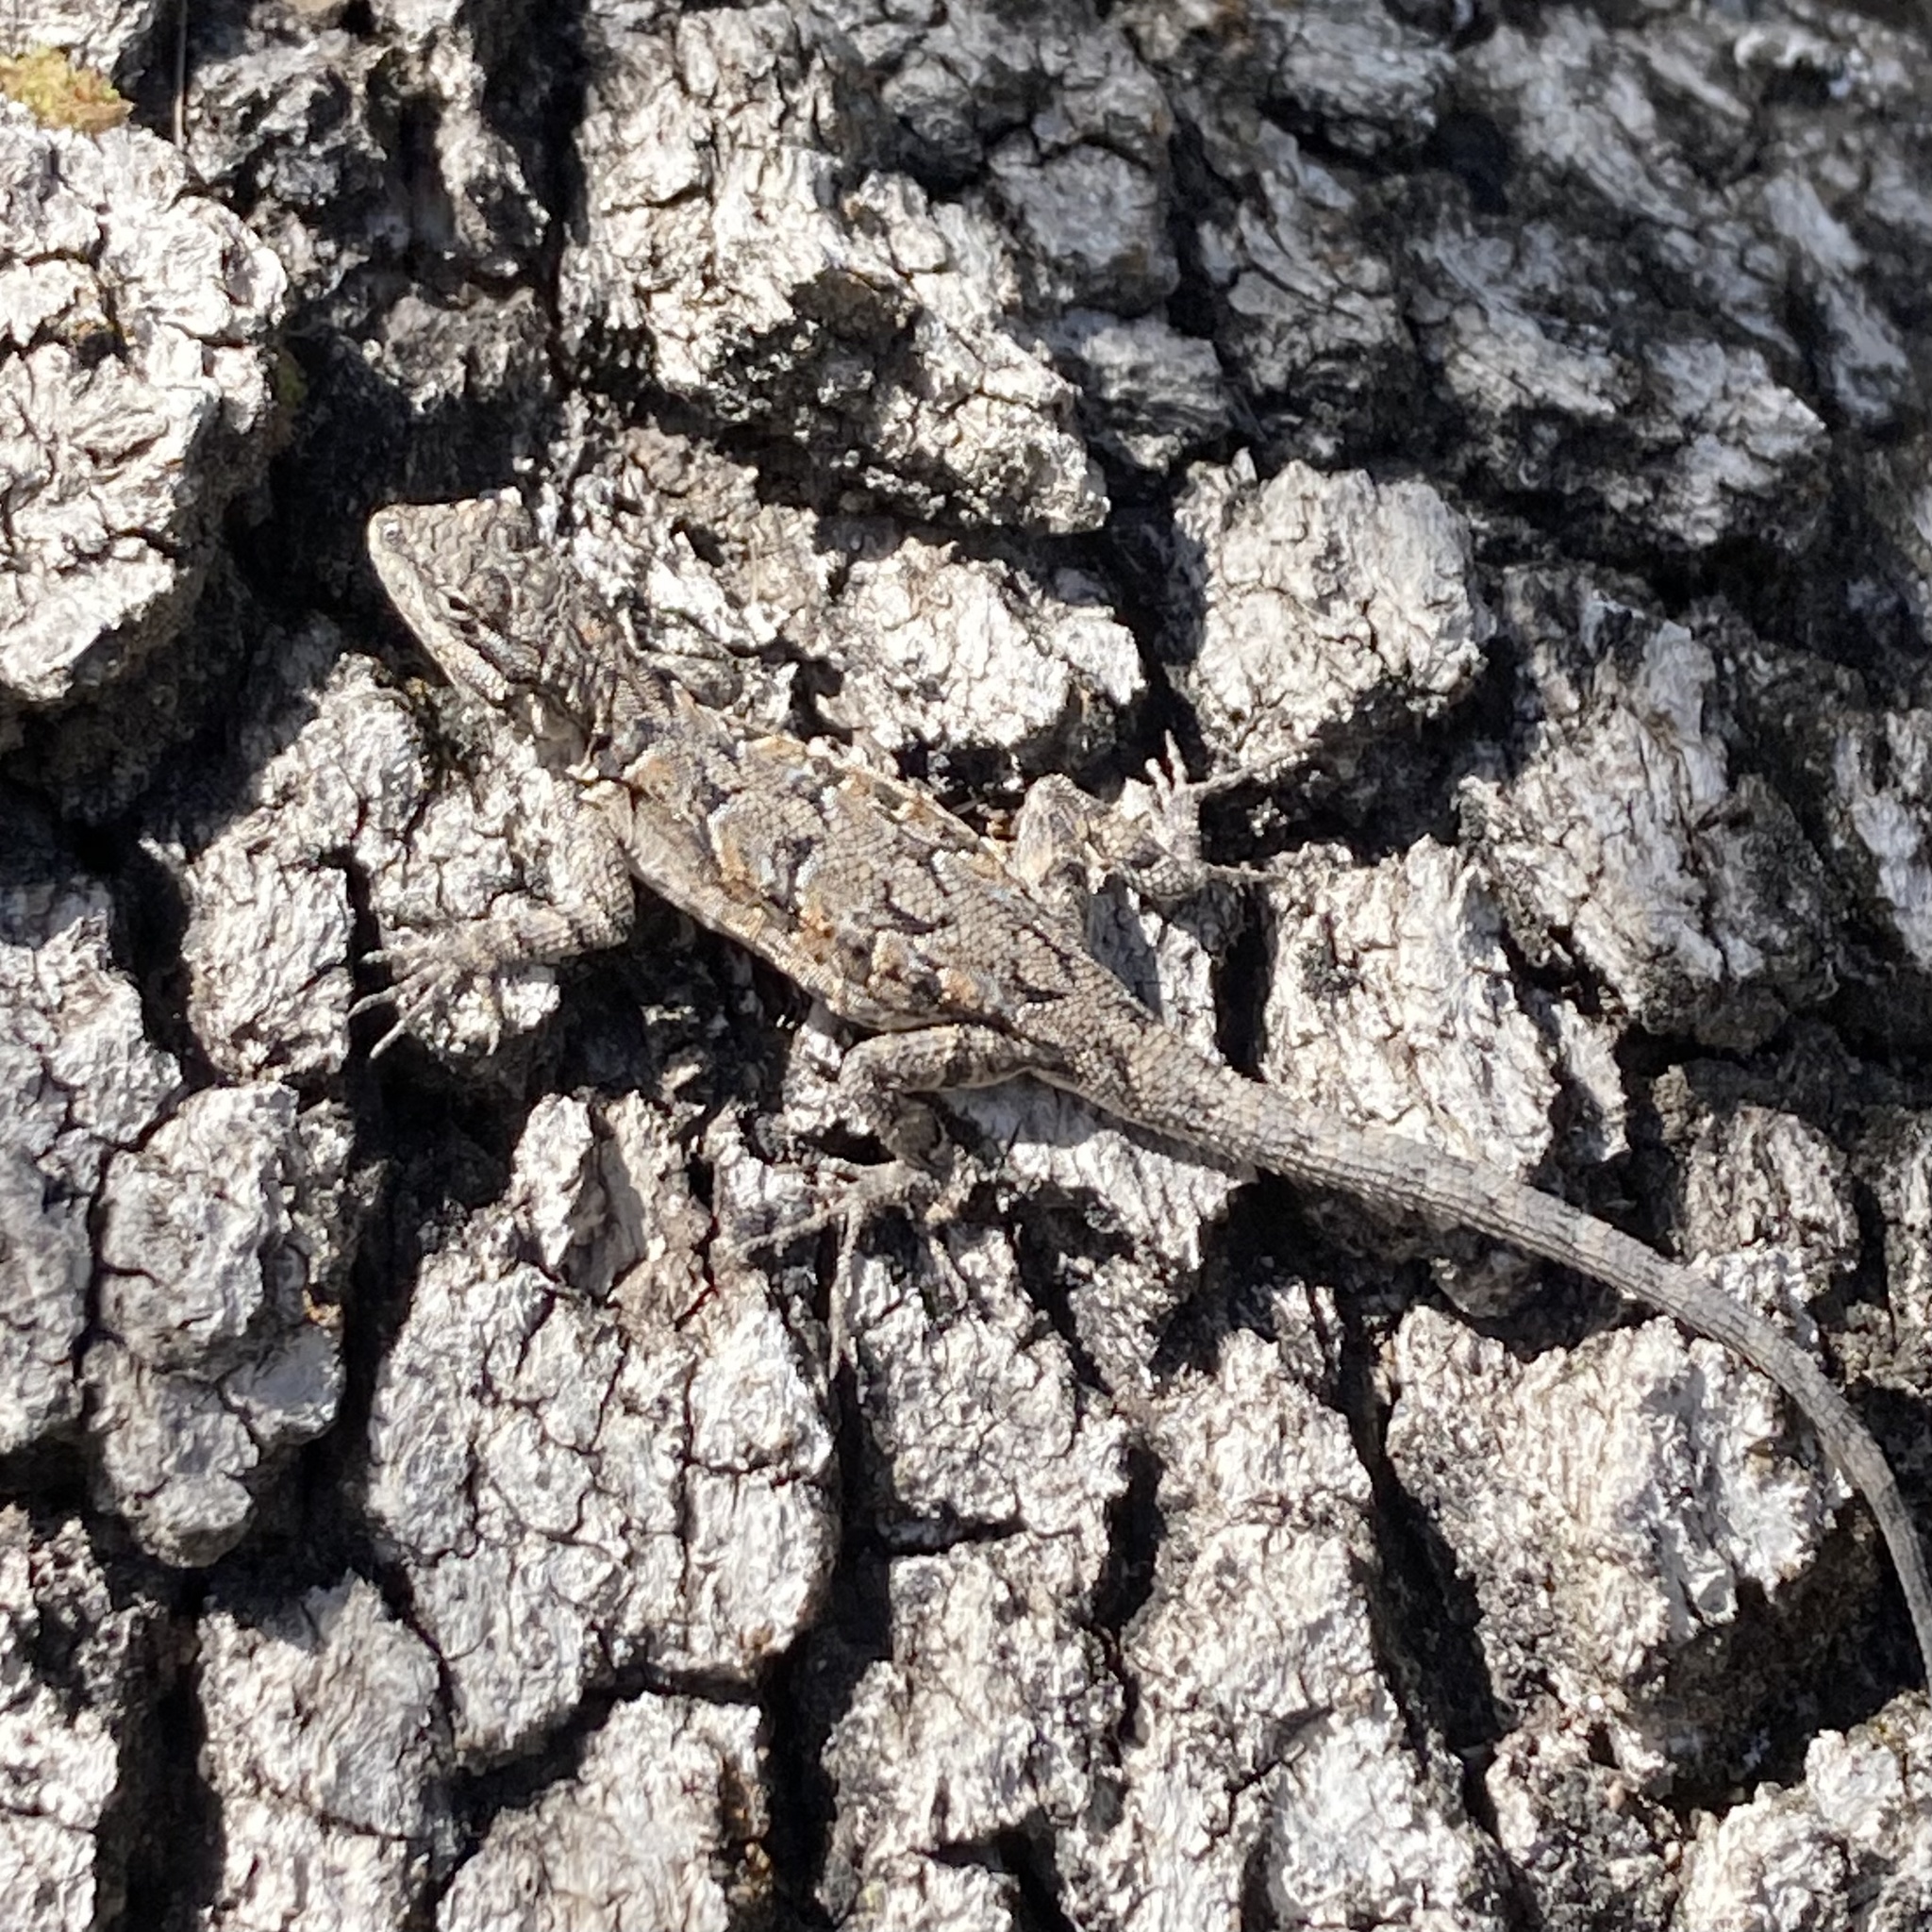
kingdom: Animalia
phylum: Chordata
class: Squamata
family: Phrynosomatidae
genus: Urosaurus
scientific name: Urosaurus ornatus
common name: Ornate tree lizard
